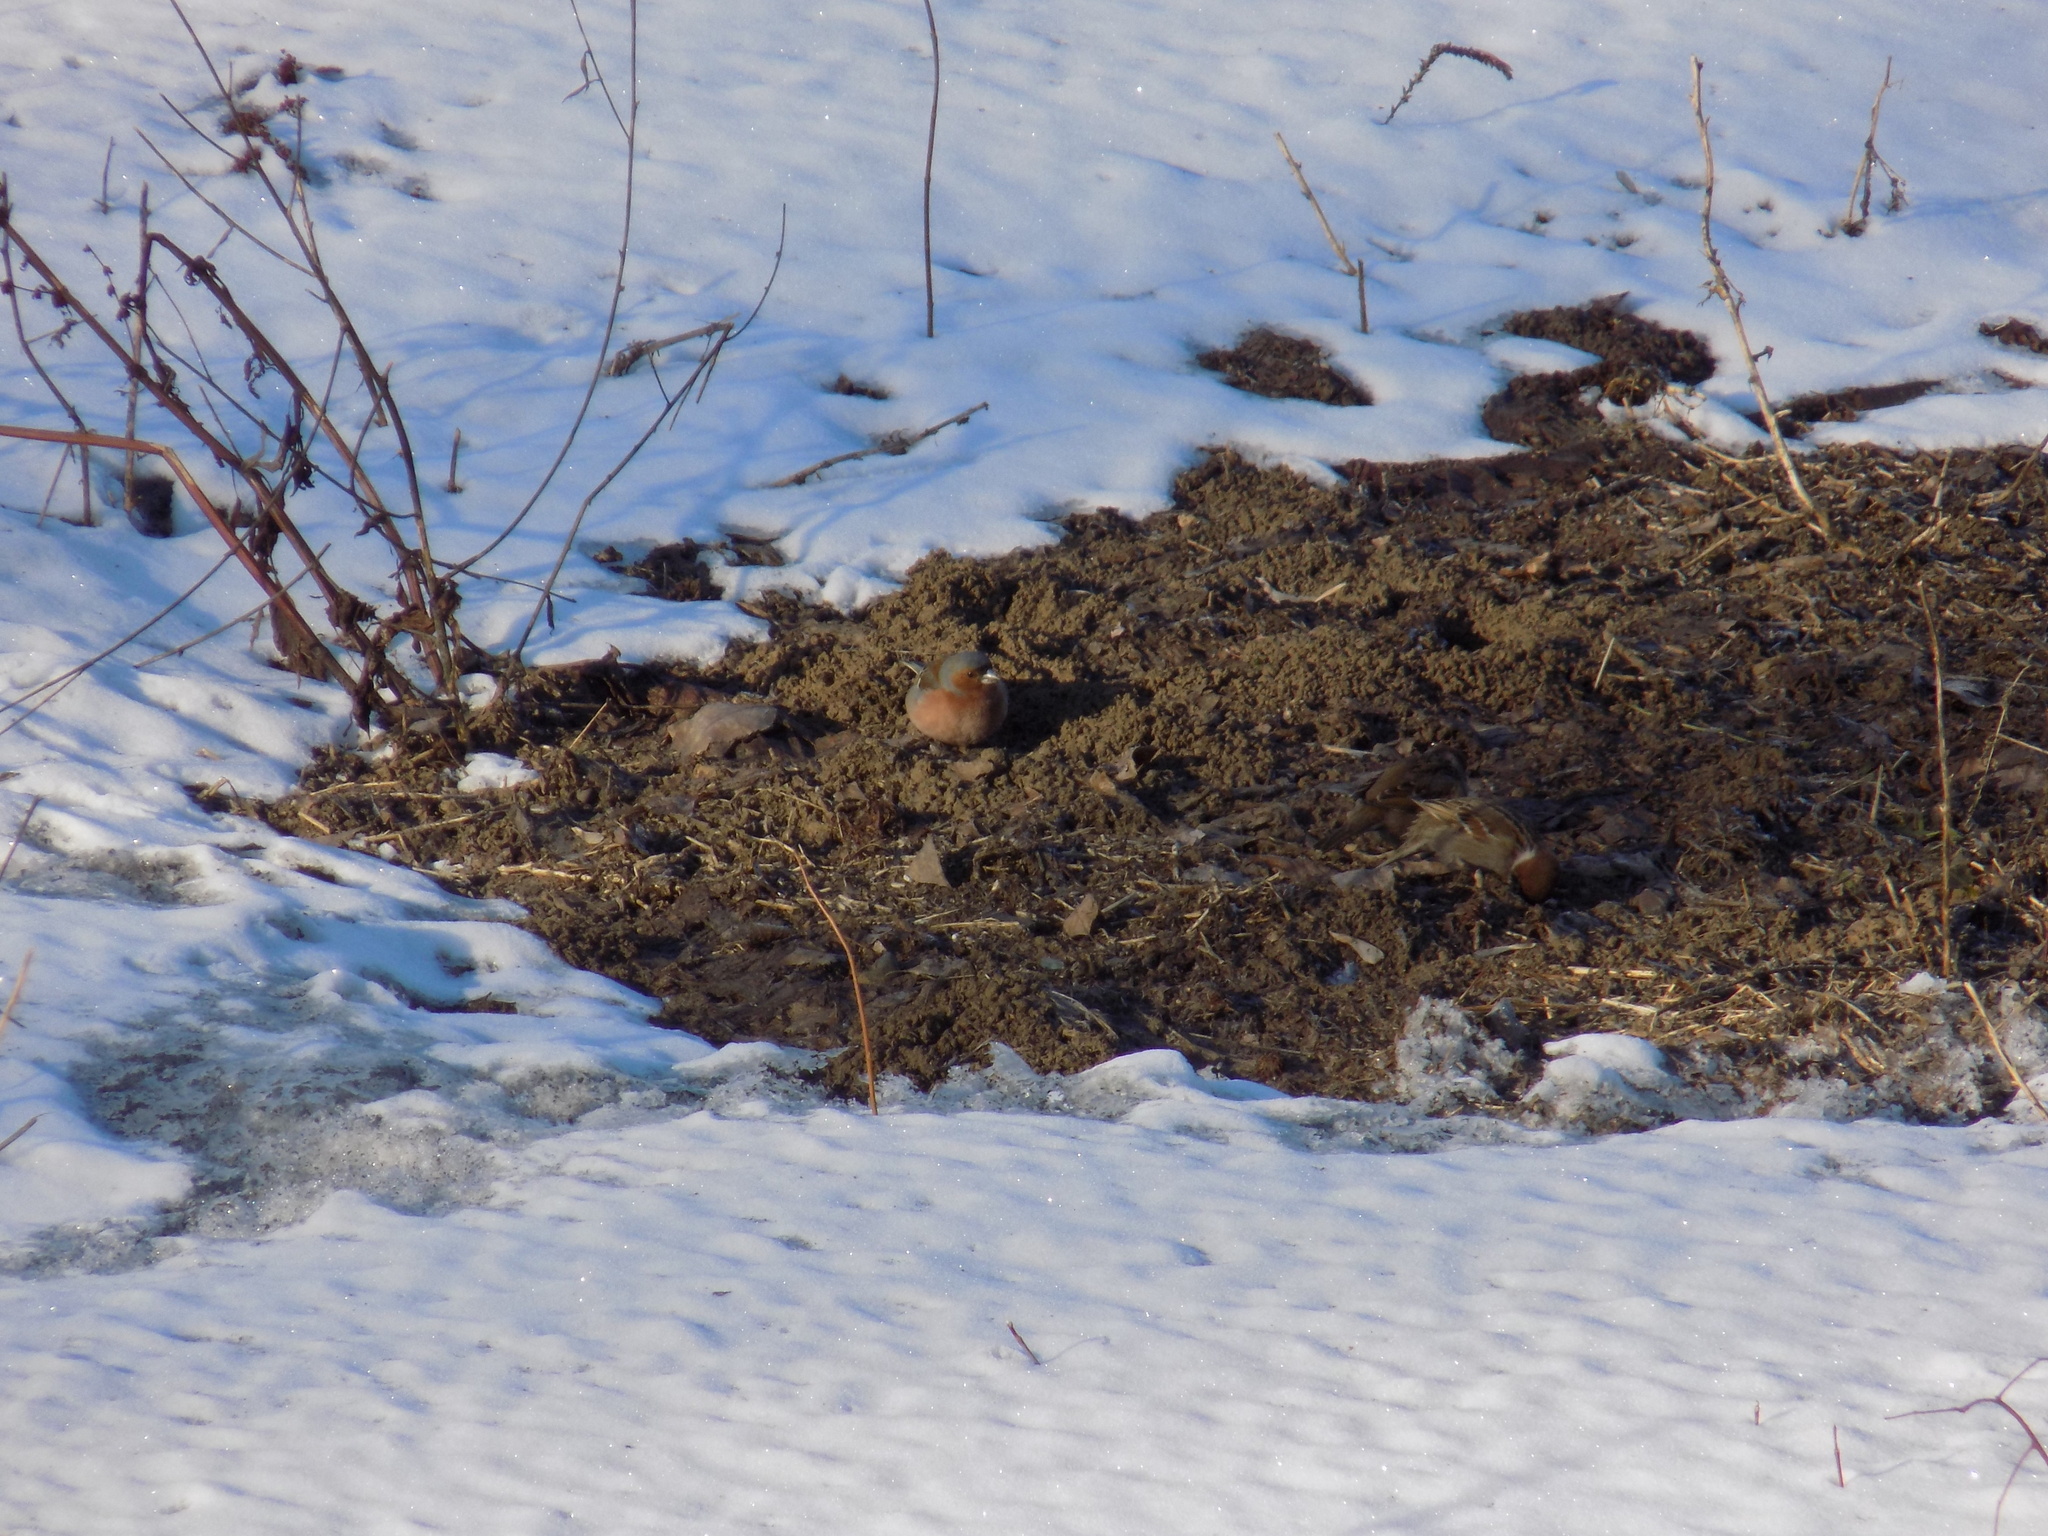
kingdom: Animalia
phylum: Chordata
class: Aves
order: Passeriformes
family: Fringillidae
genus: Fringilla
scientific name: Fringilla coelebs
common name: Common chaffinch
